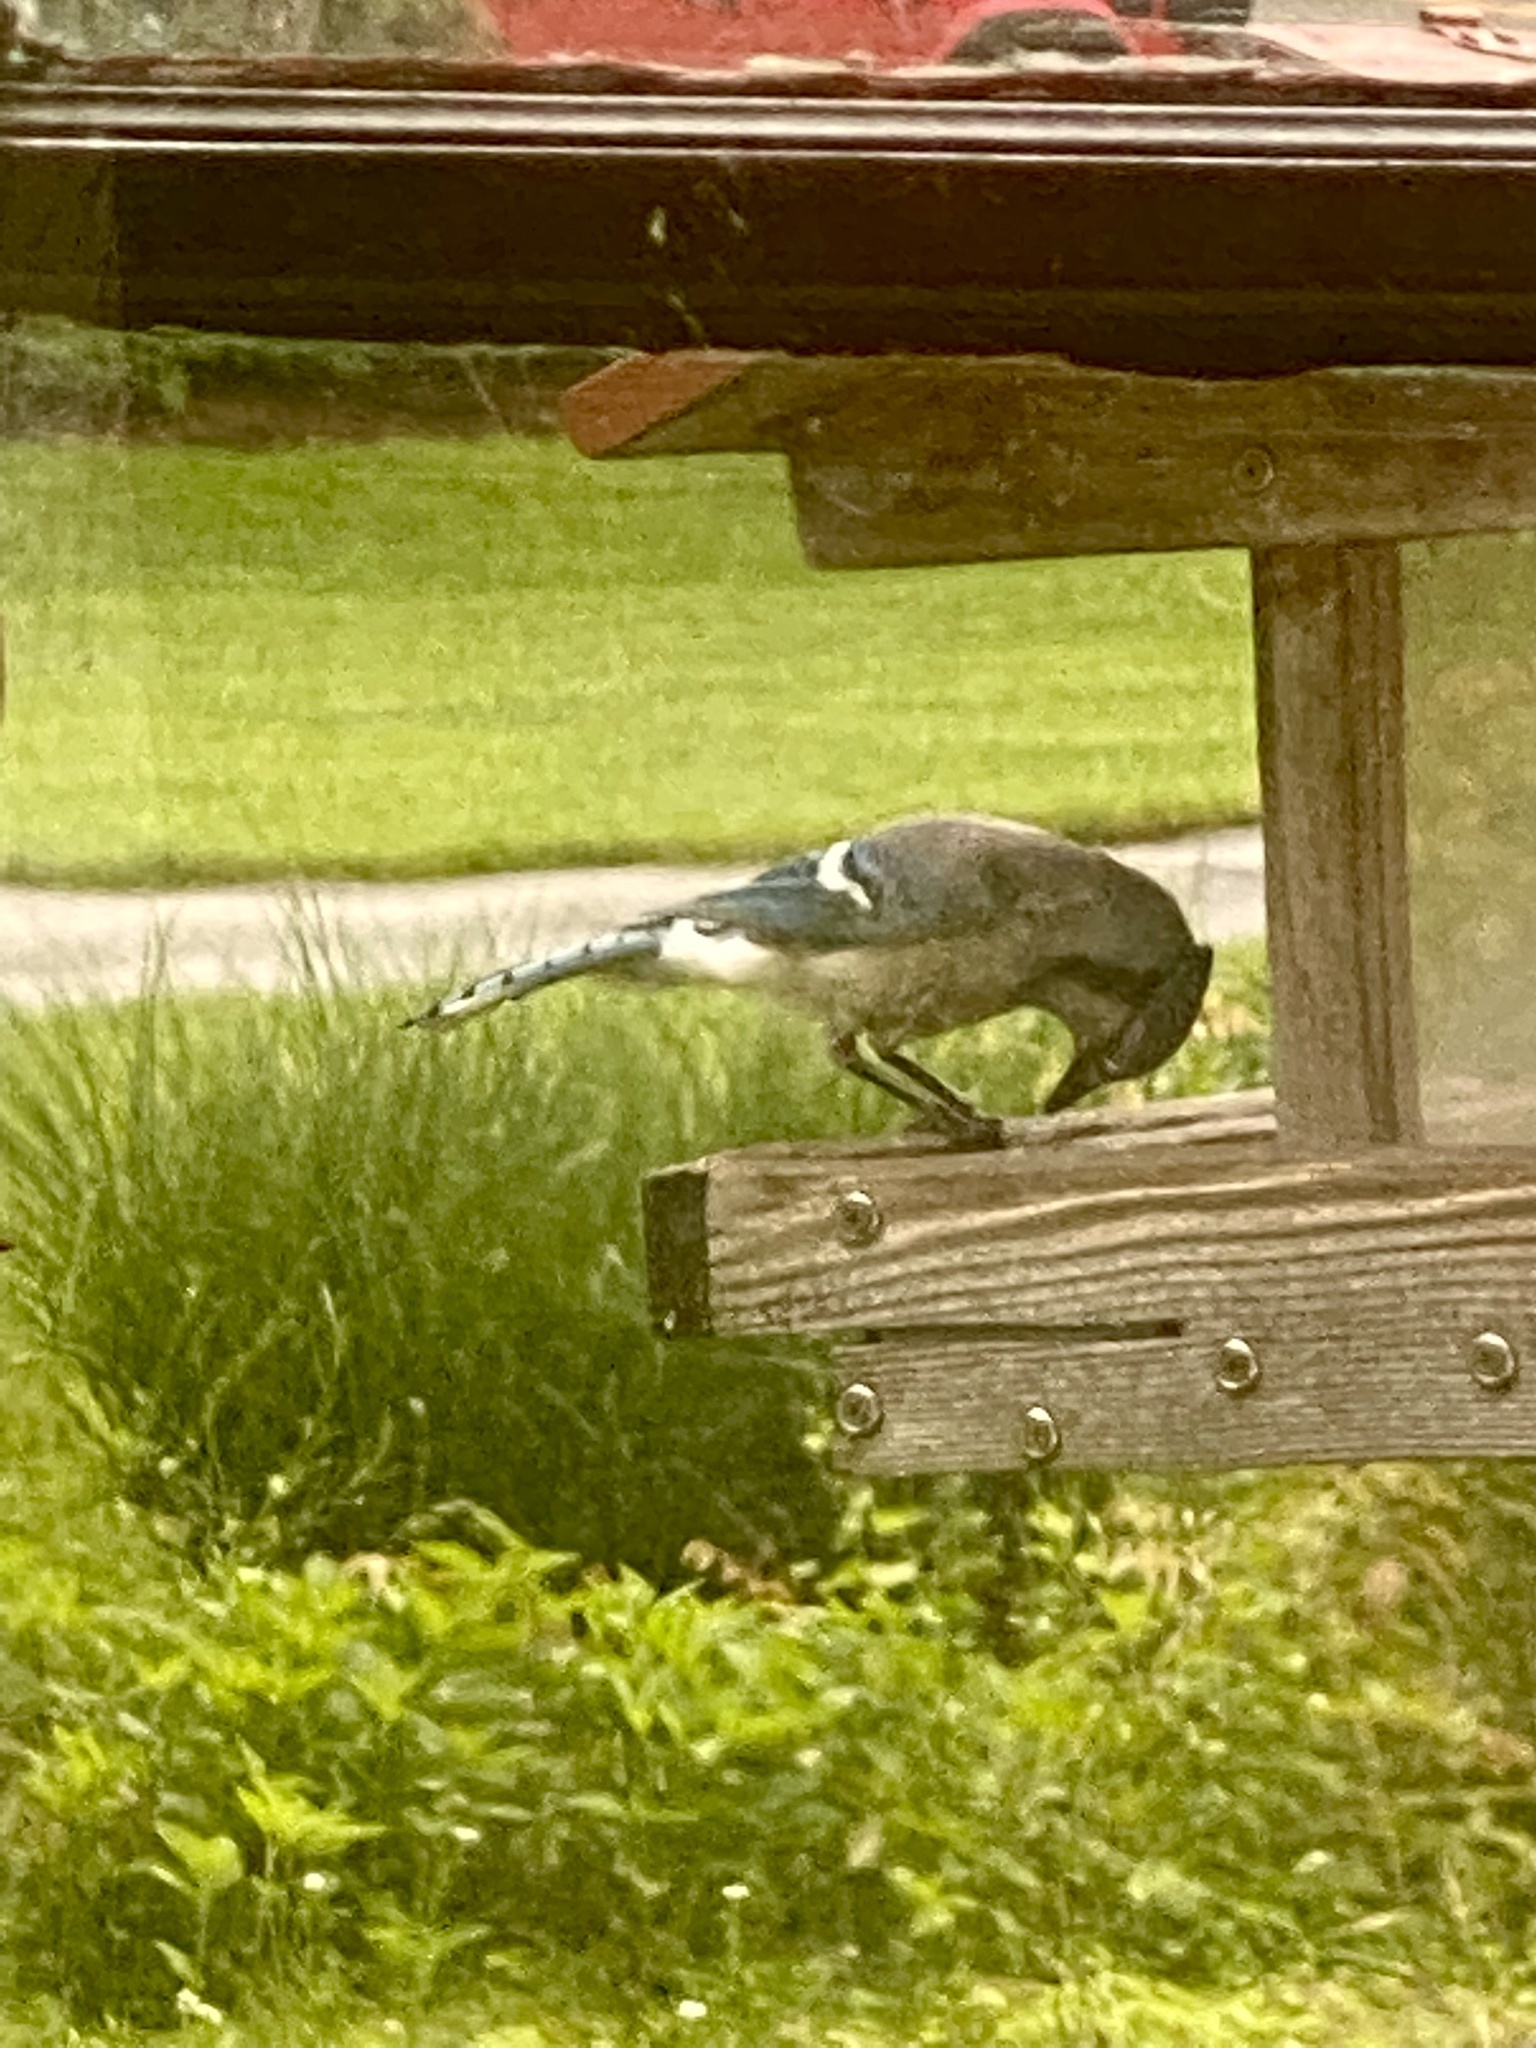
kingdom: Animalia
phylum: Chordata
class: Aves
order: Passeriformes
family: Corvidae
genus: Cyanocitta
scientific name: Cyanocitta cristata
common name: Blue jay
